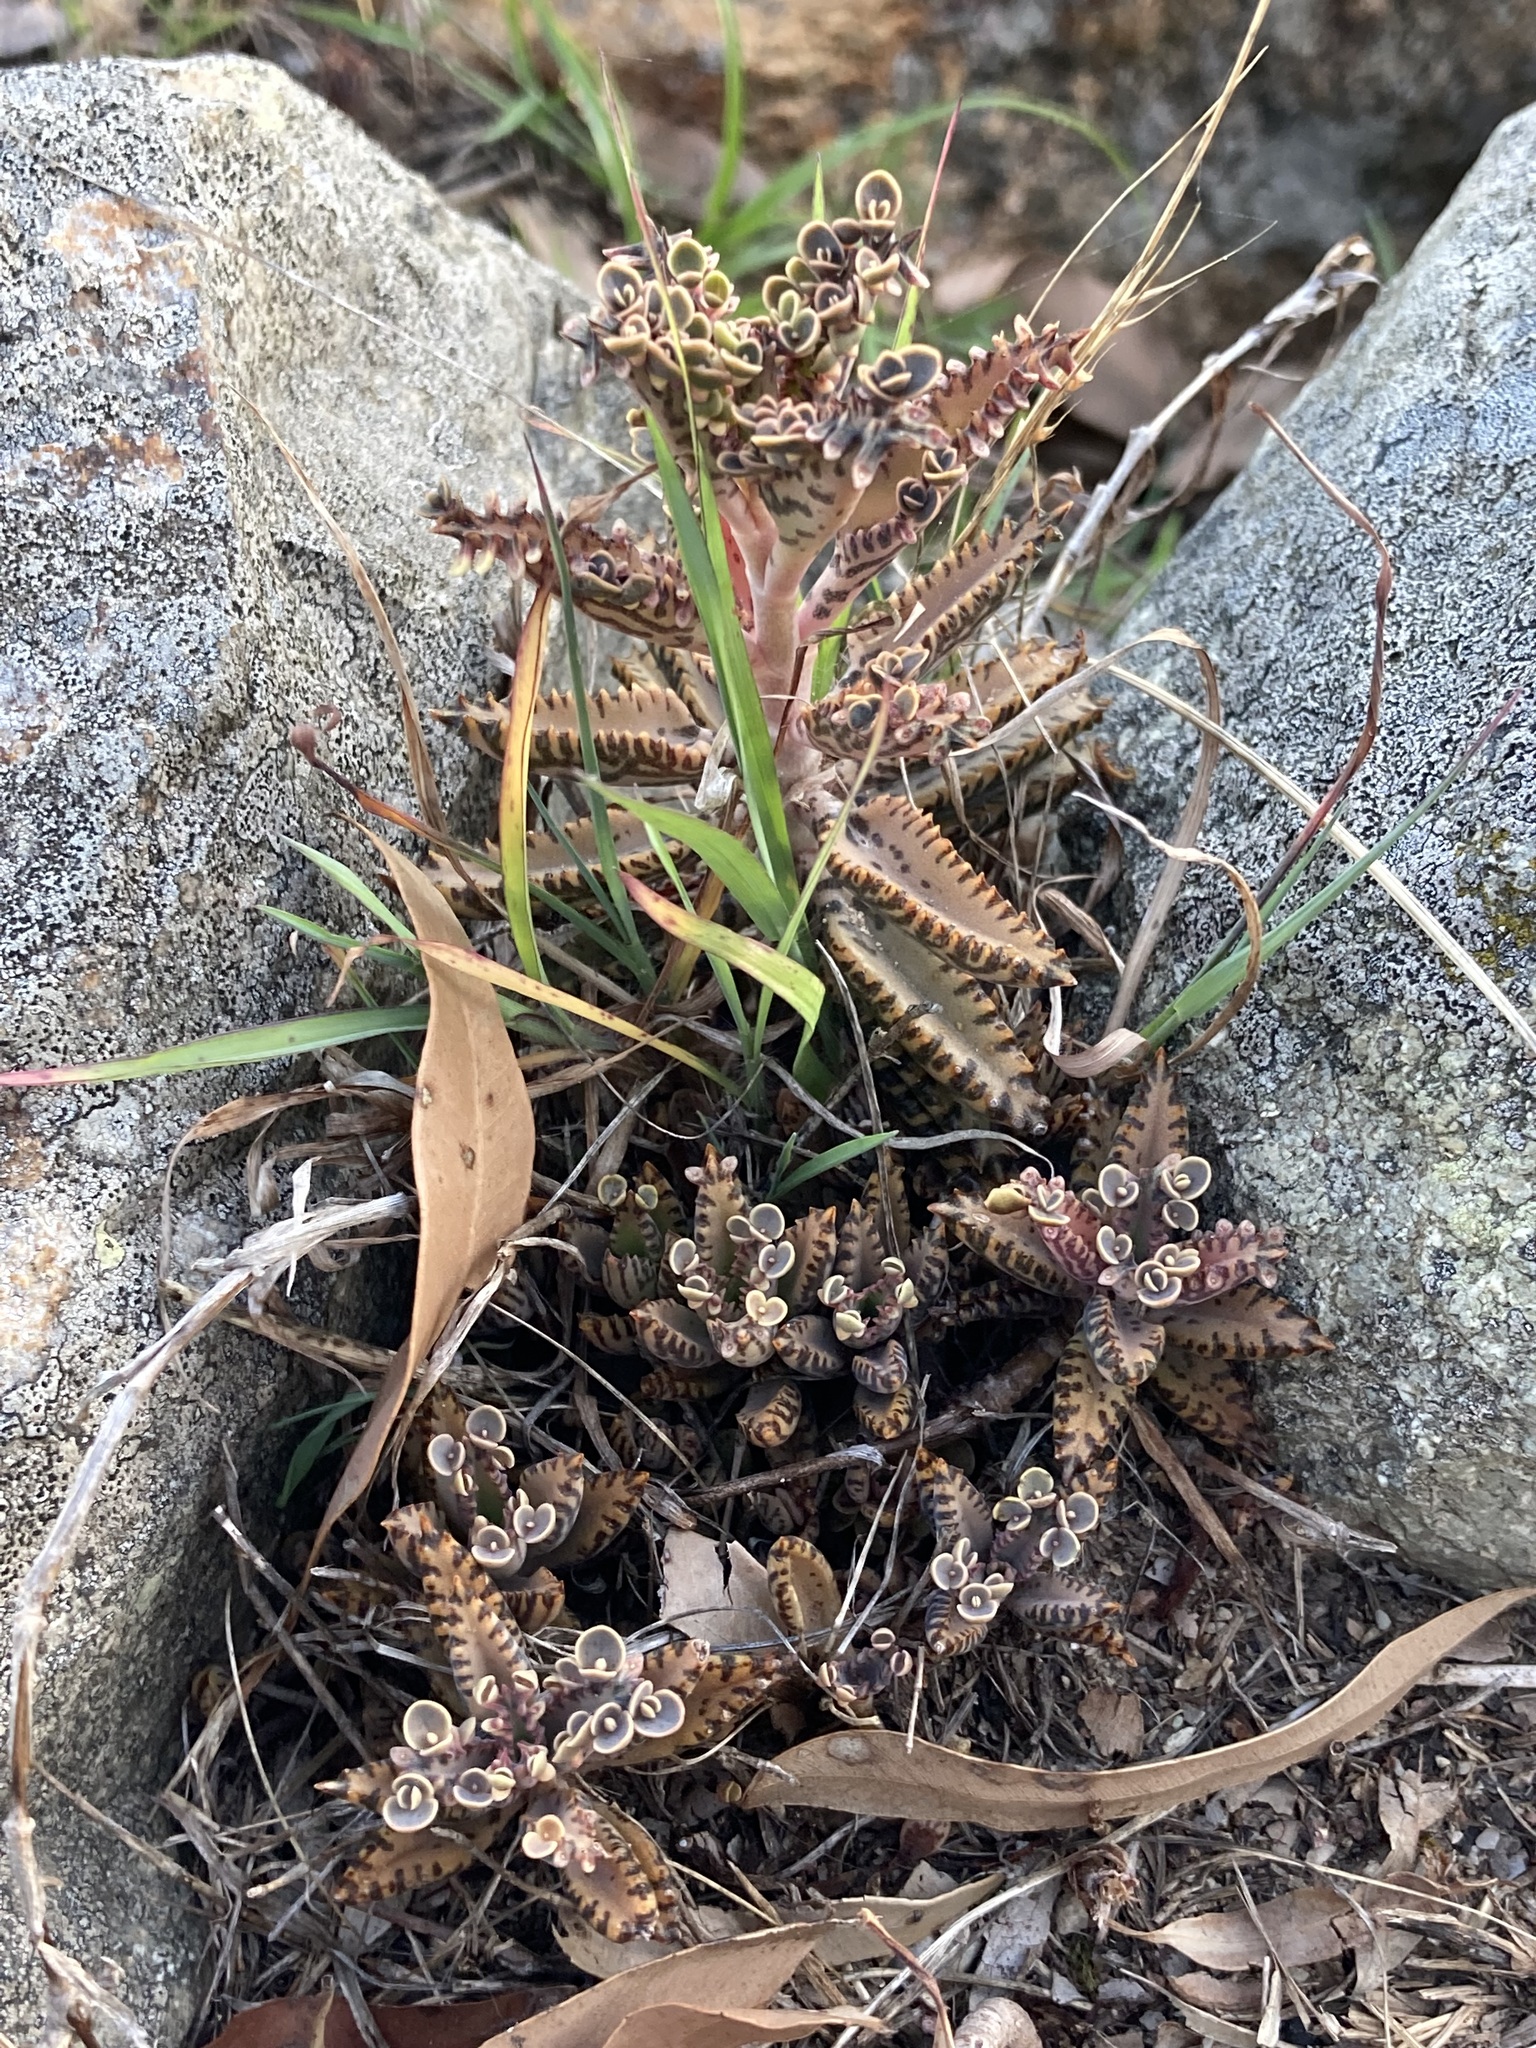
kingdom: Plantae
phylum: Tracheophyta
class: Magnoliopsida
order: Saxifragales
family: Crassulaceae
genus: Kalanchoe
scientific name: Kalanchoe houghtonii
